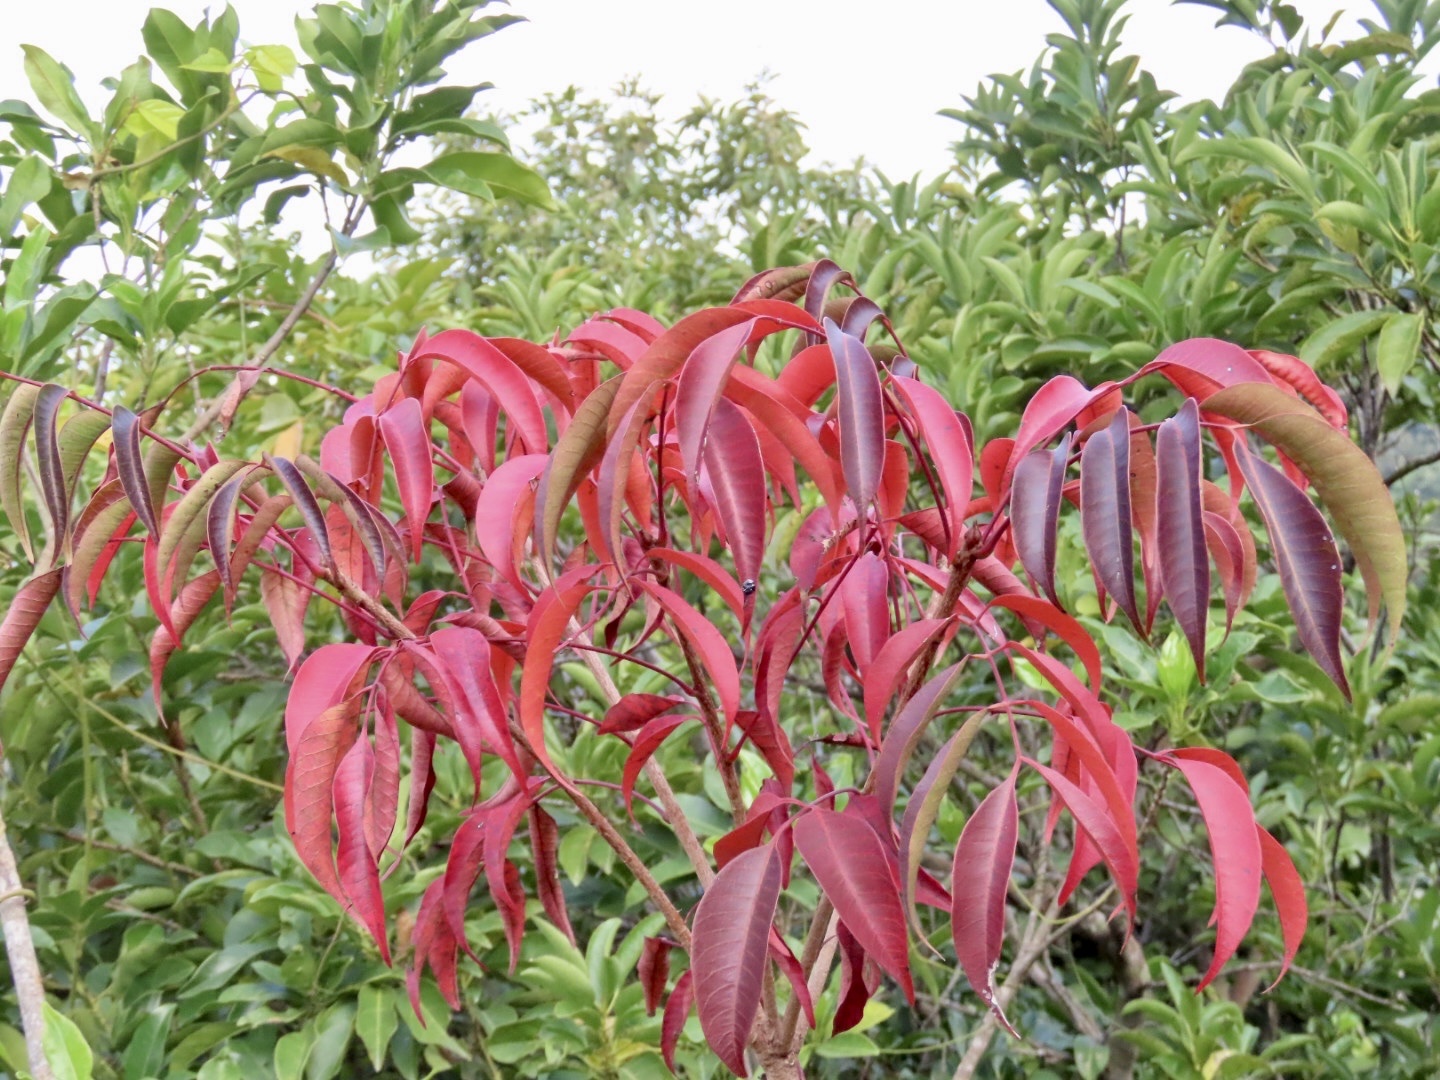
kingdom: Plantae
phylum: Tracheophyta
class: Magnoliopsida
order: Sapindales
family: Anacardiaceae
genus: Toxicodendron
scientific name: Toxicodendron succedaneum
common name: Wax tree
